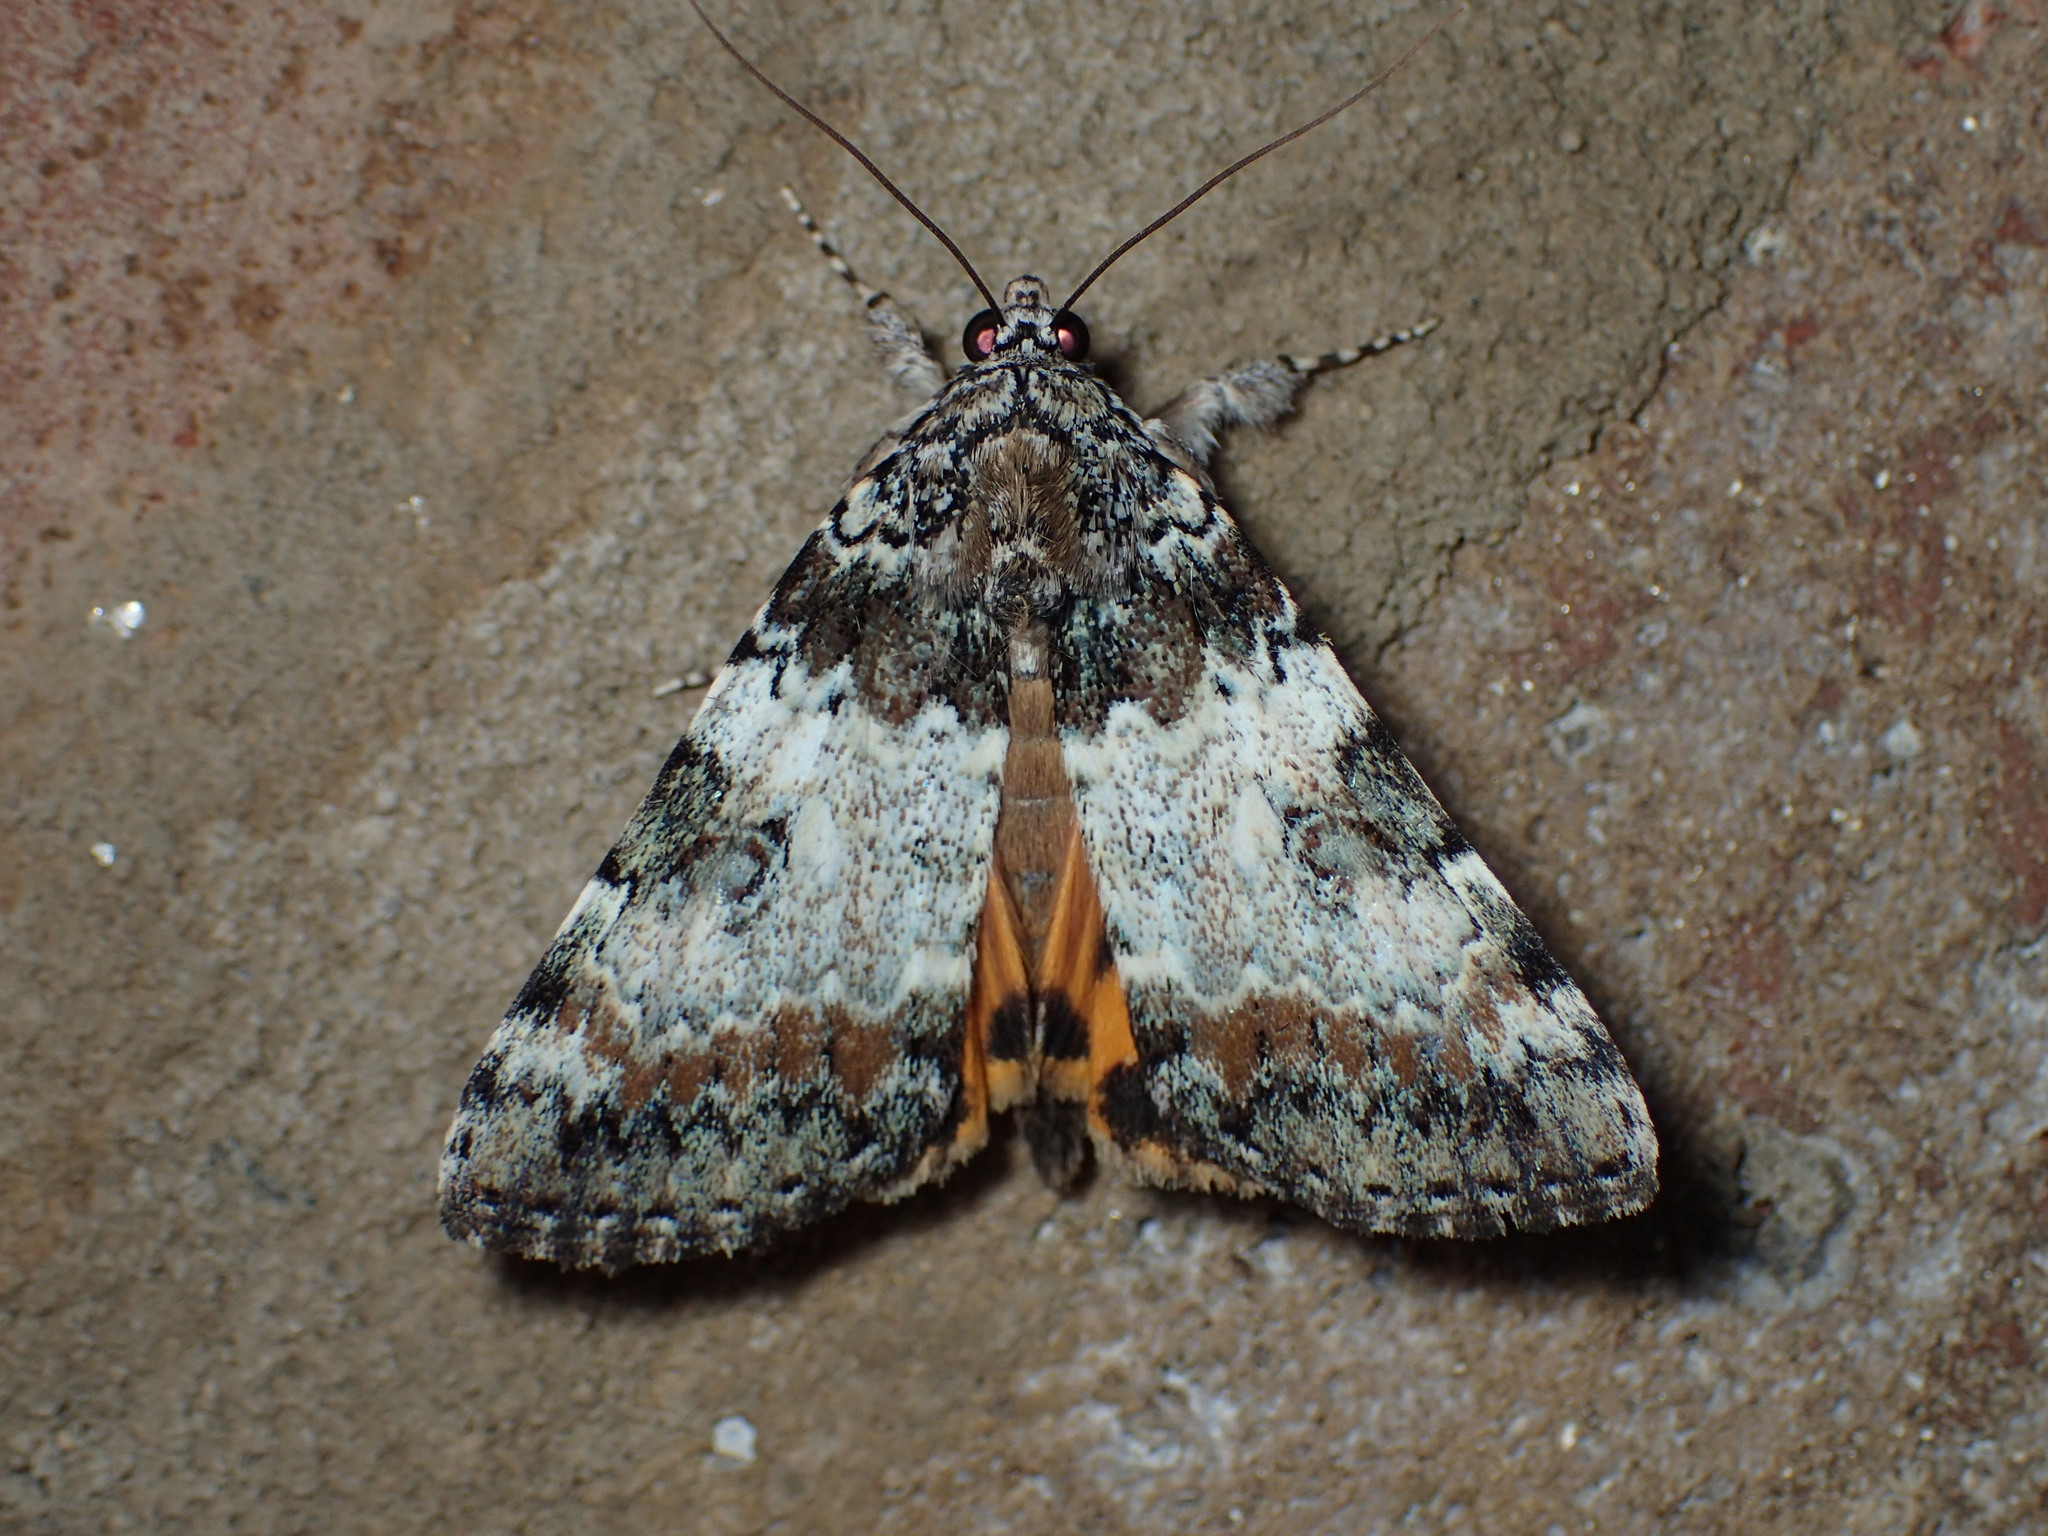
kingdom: Animalia
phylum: Arthropoda
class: Insecta
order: Lepidoptera
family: Erebidae
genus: Catocala
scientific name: Catocala connubialis
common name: Connubial underwing
